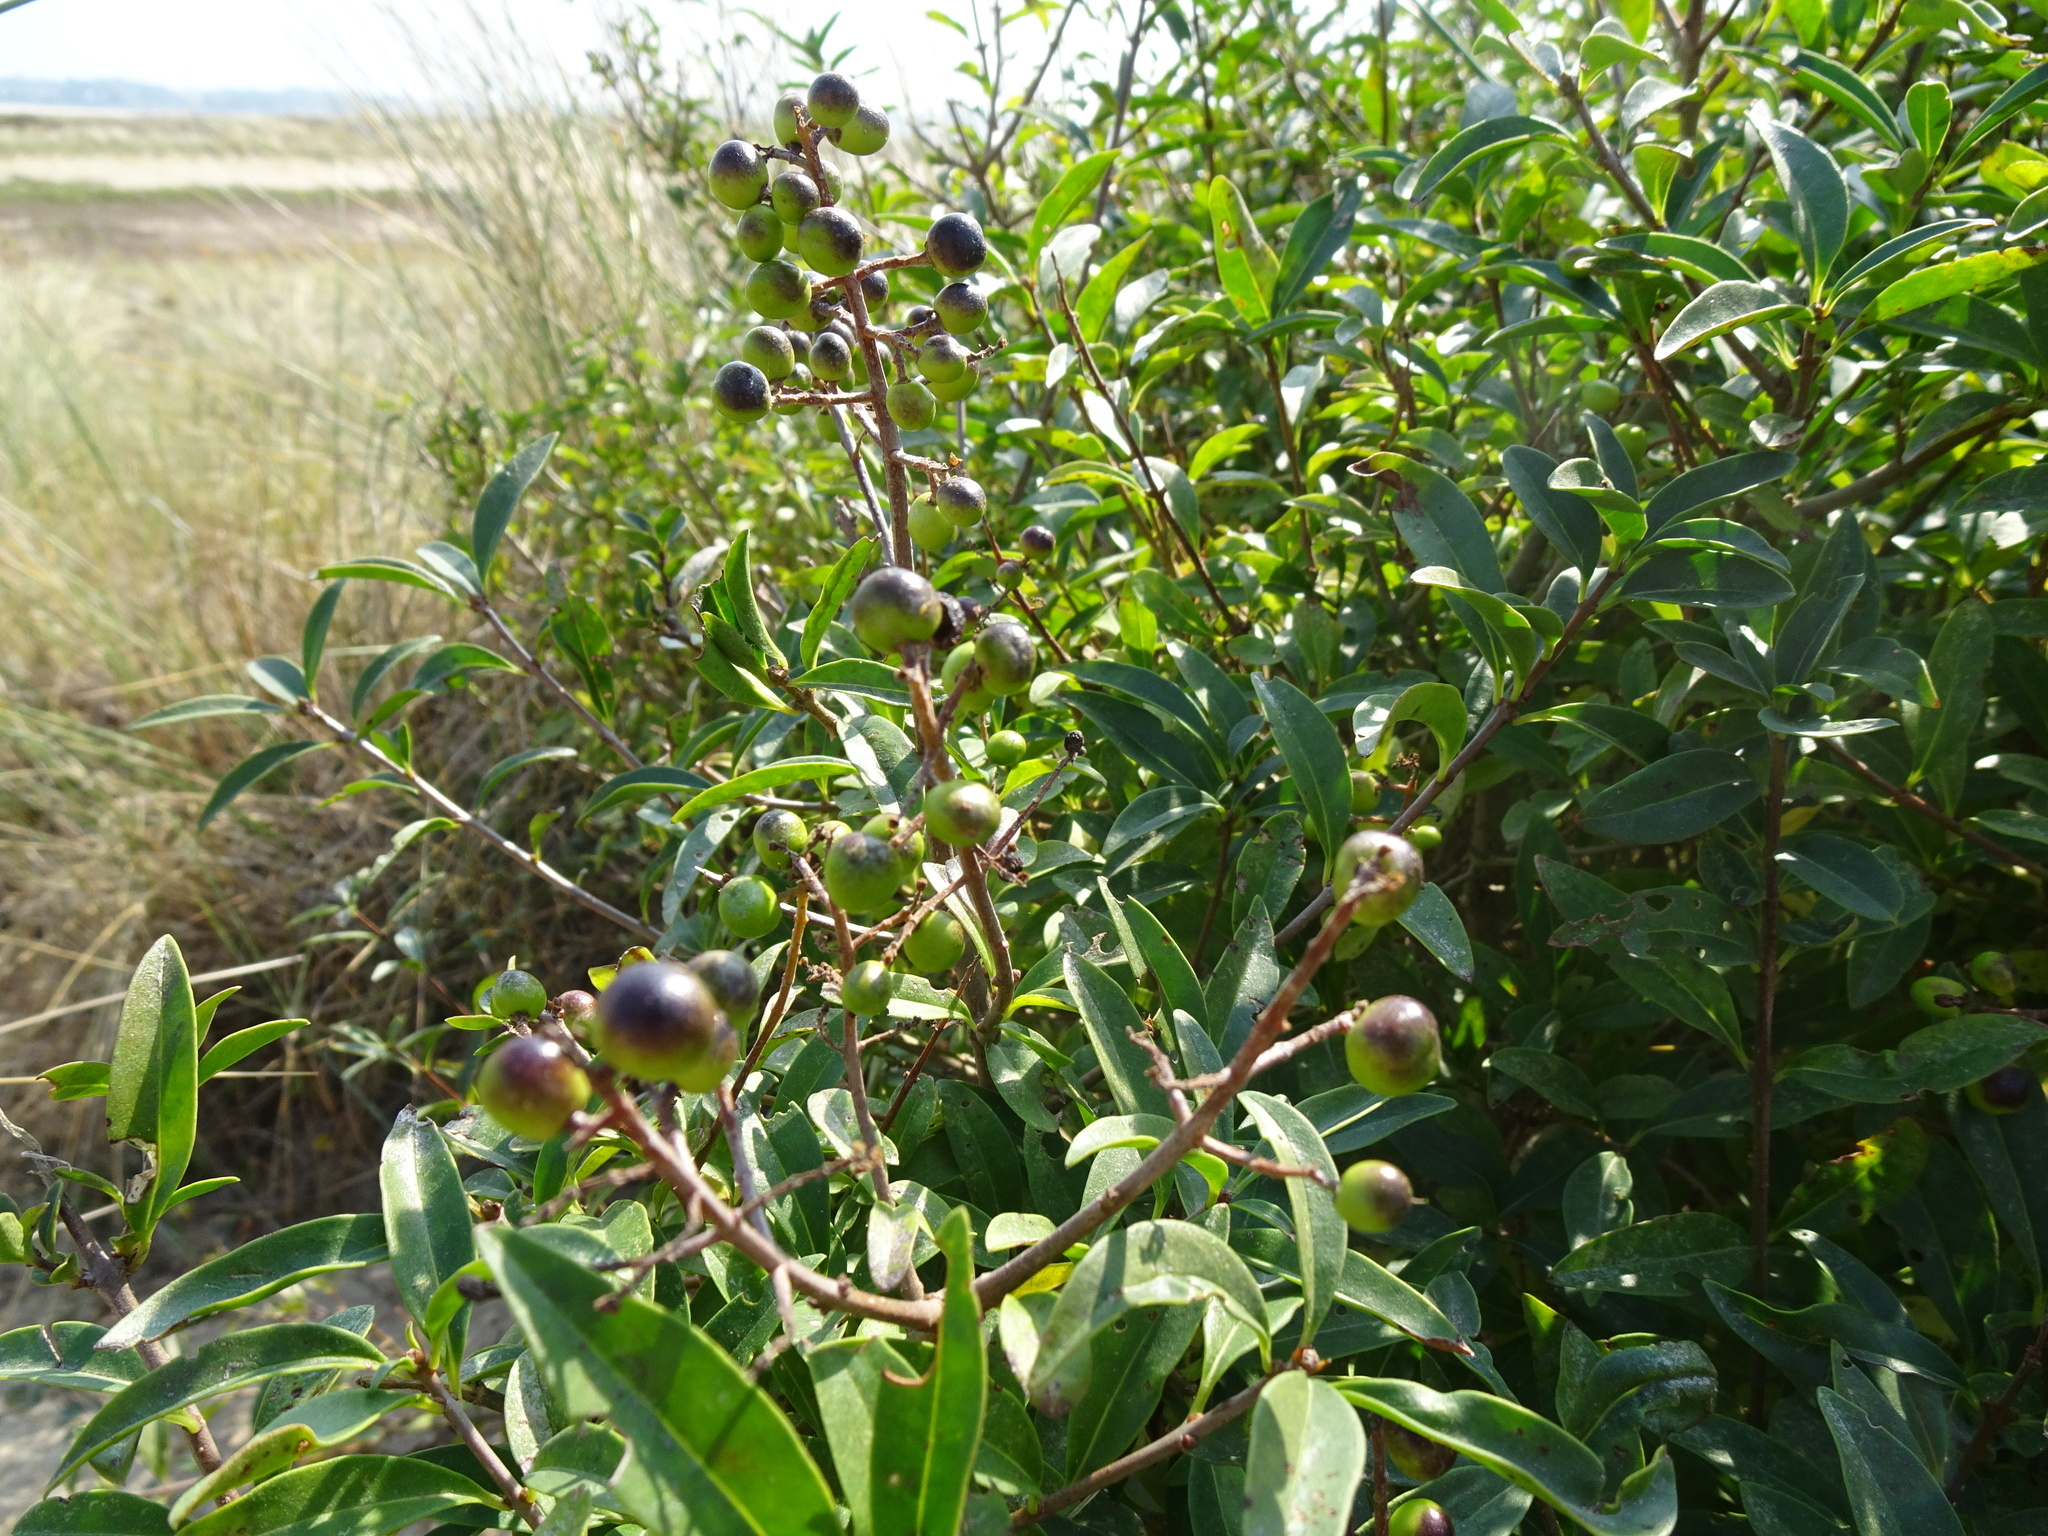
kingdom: Plantae
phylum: Tracheophyta
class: Magnoliopsida
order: Lamiales
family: Oleaceae
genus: Ligustrum
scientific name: Ligustrum vulgare
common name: Wild privet
